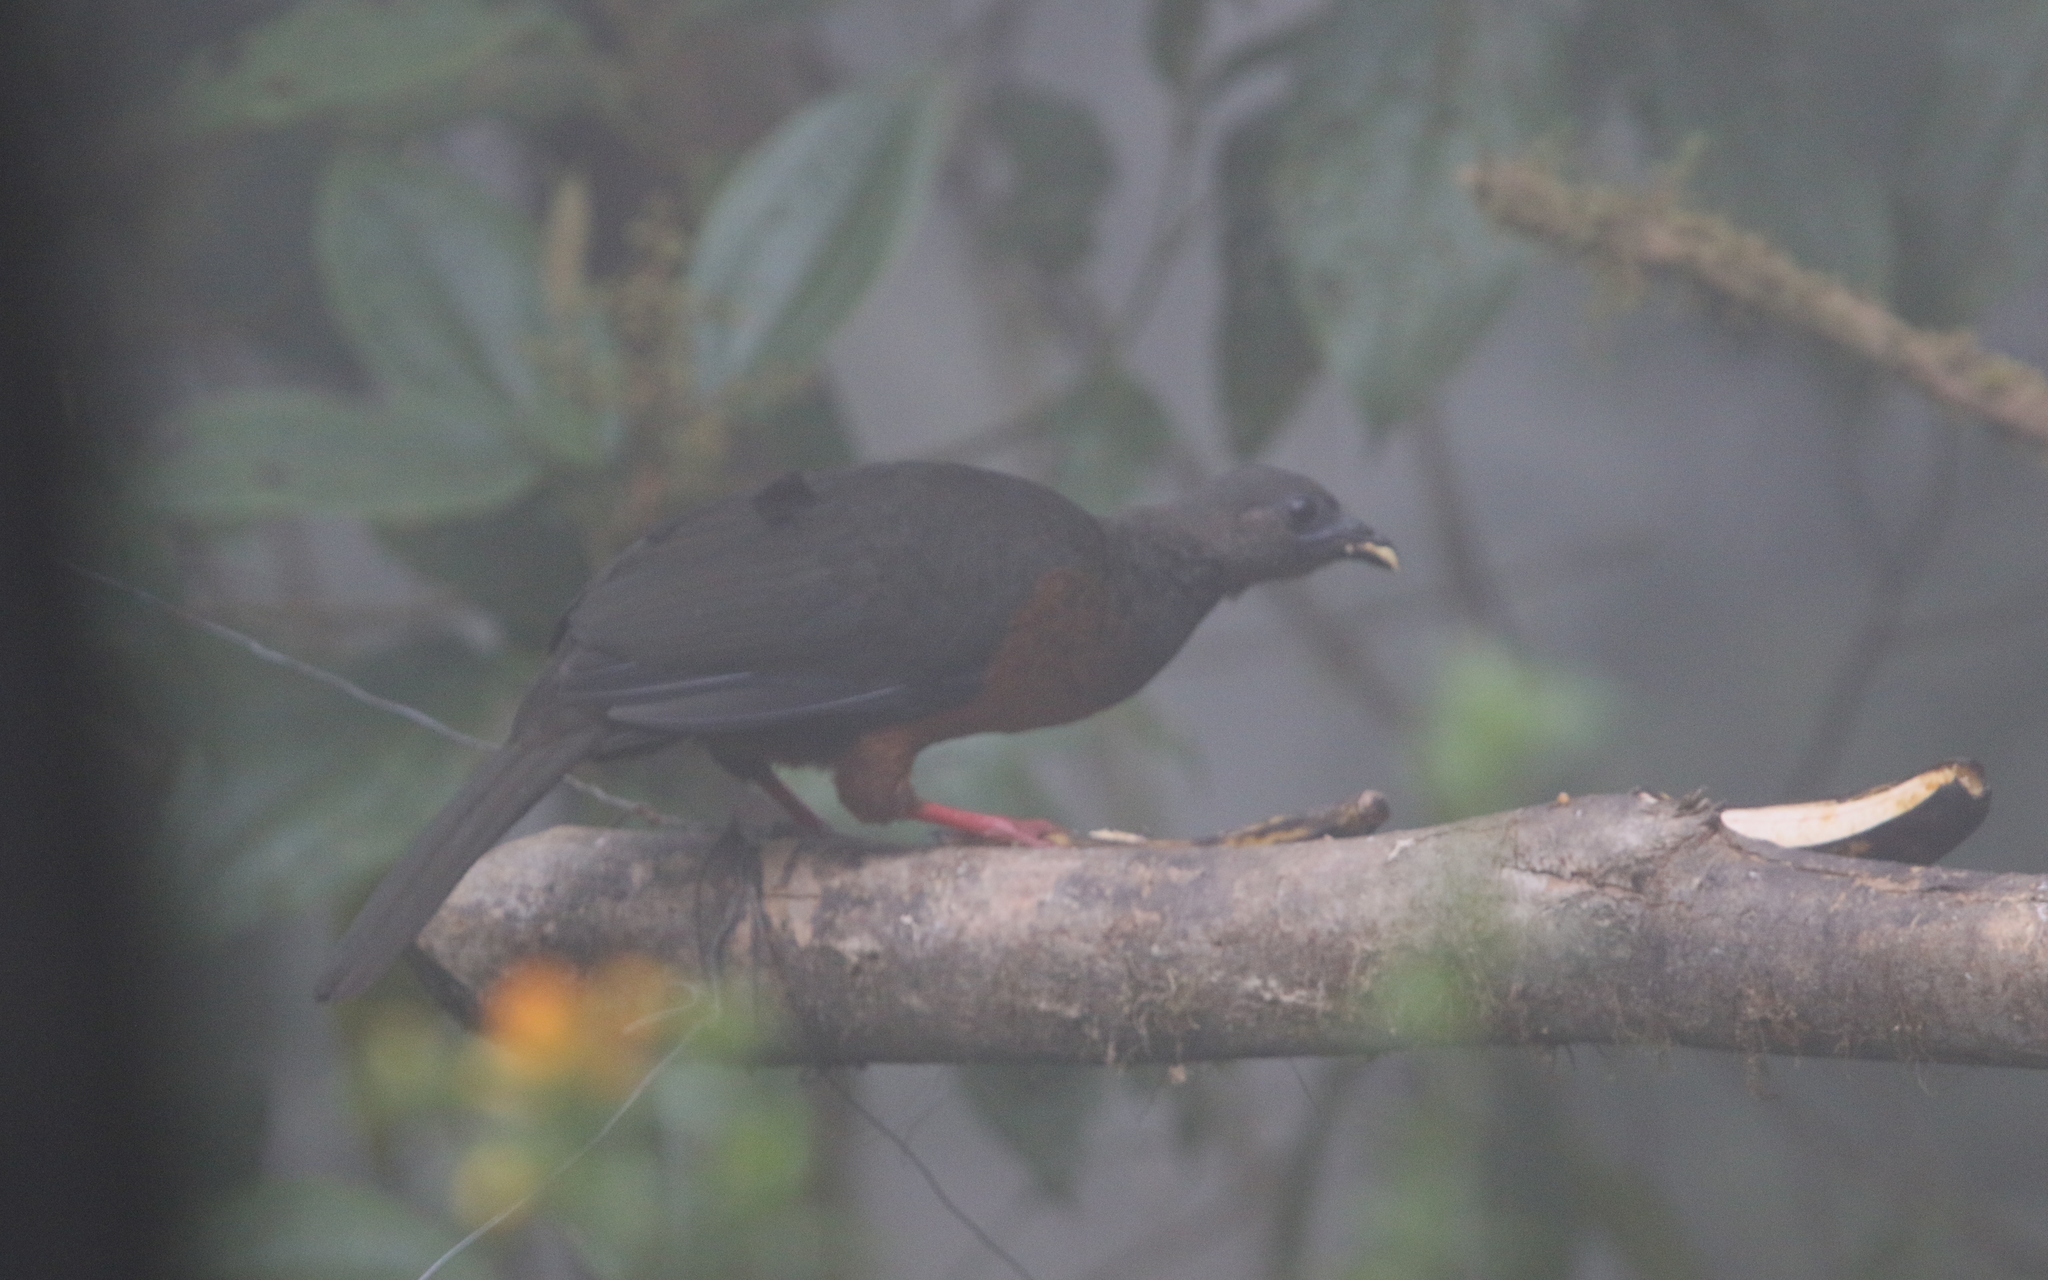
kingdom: Animalia
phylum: Chordata
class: Aves
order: Galliformes
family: Cracidae
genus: Chamaepetes
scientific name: Chamaepetes goudotii
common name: Sickle-winged guan
